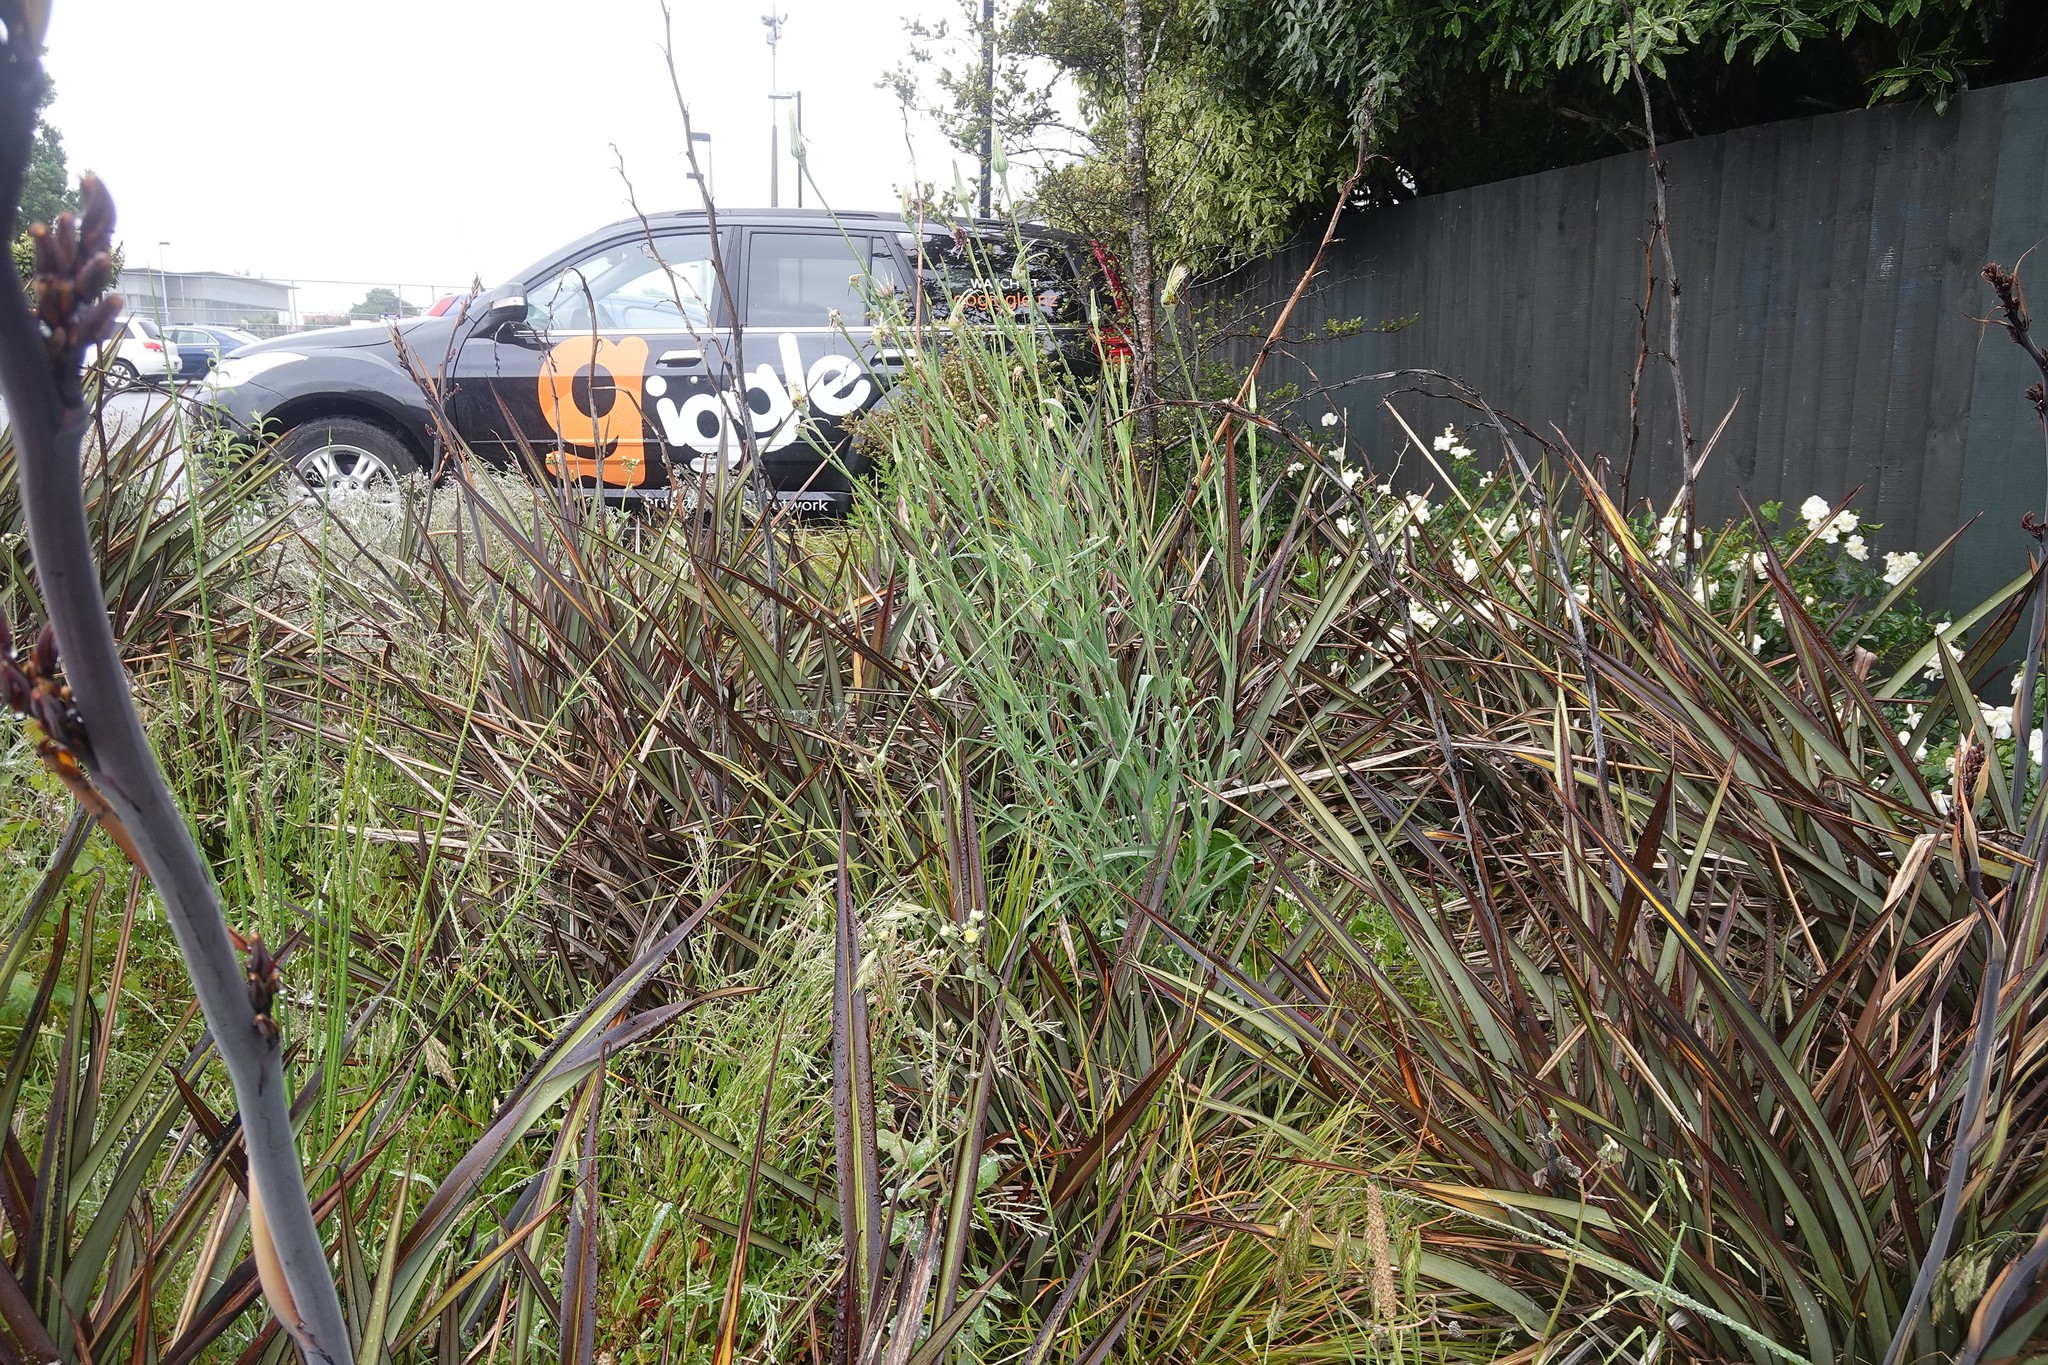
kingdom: Plantae
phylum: Tracheophyta
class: Magnoliopsida
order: Asterales
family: Asteraceae
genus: Tragopogon
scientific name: Tragopogon porrifolius
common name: Salsify
